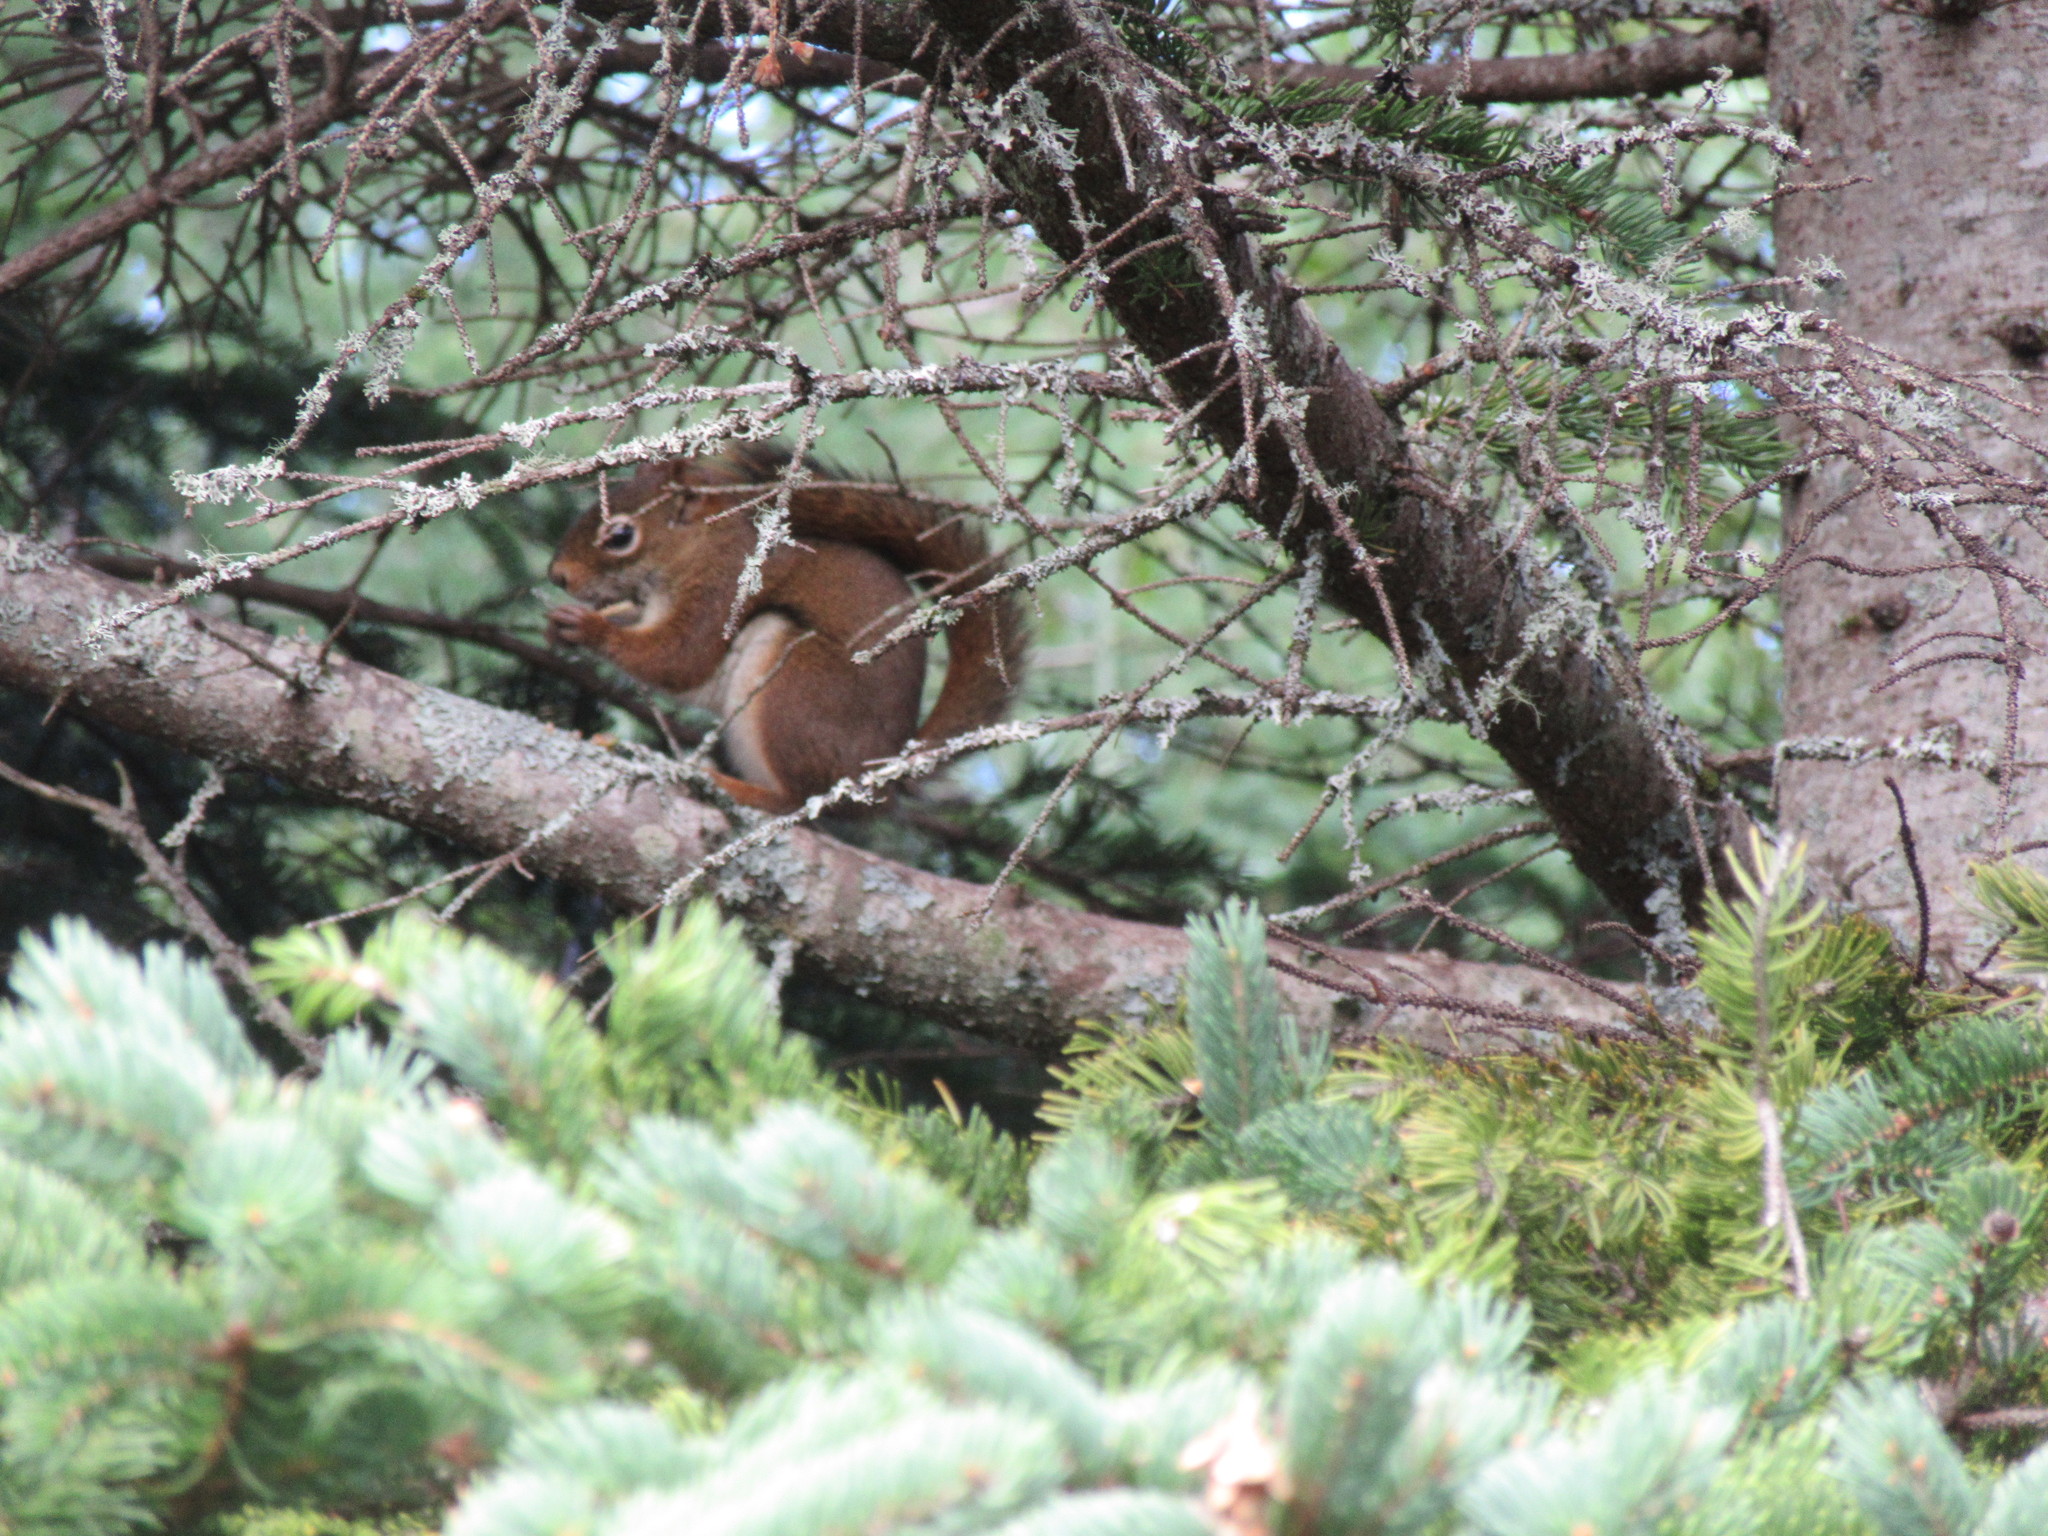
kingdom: Animalia
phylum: Chordata
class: Mammalia
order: Rodentia
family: Sciuridae
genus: Tamiasciurus
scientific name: Tamiasciurus hudsonicus
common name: Red squirrel
